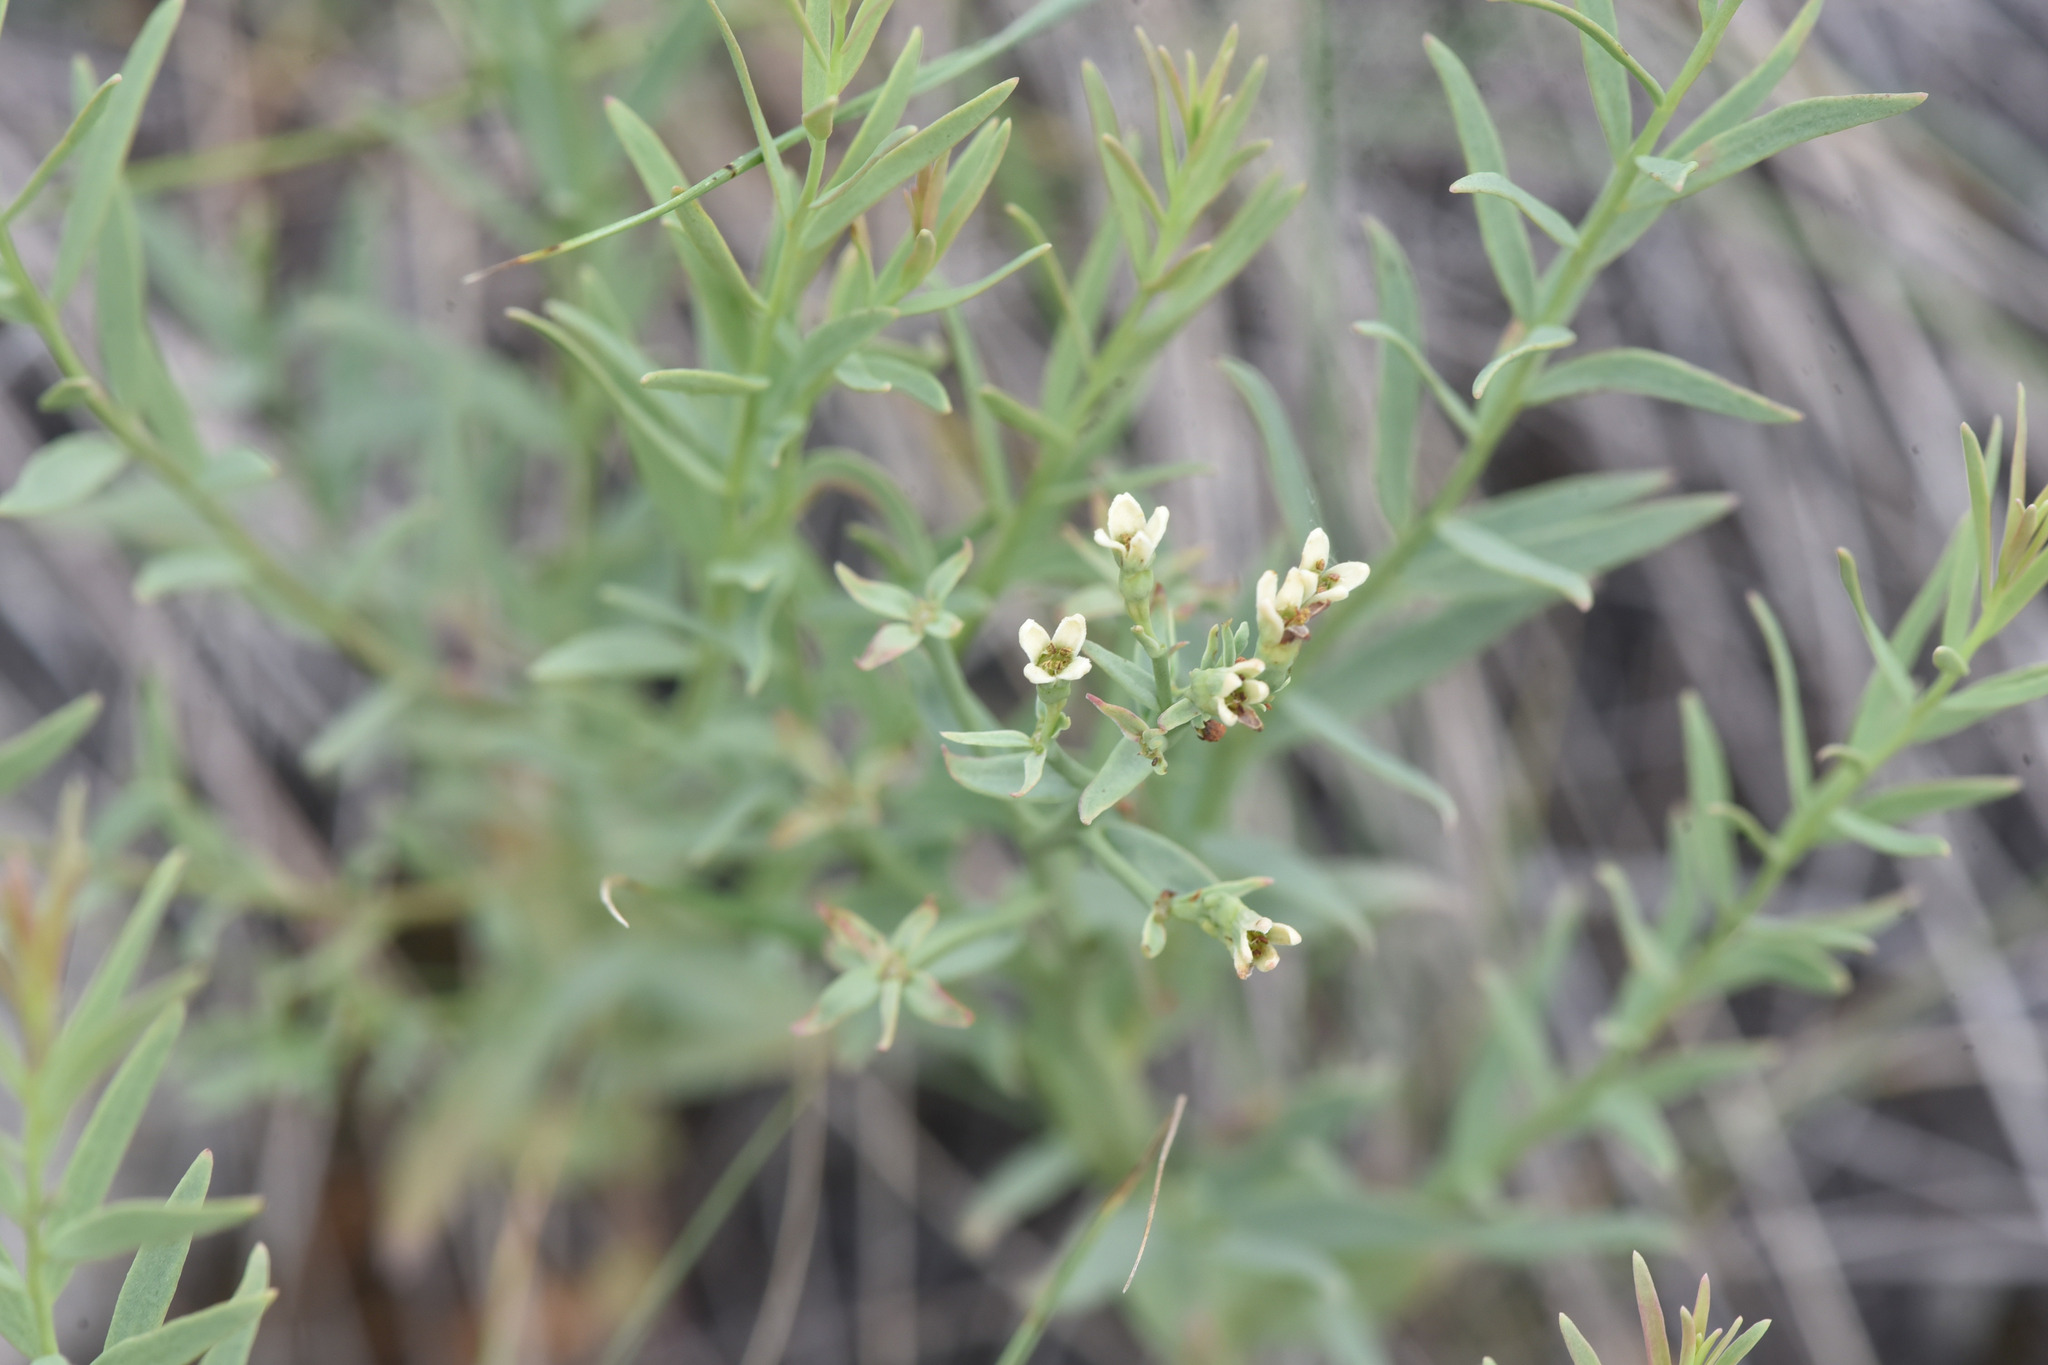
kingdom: Plantae
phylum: Tracheophyta
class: Magnoliopsida
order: Santalales
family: Comandraceae
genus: Comandra
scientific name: Comandra umbellata
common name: Bastard toadflax
